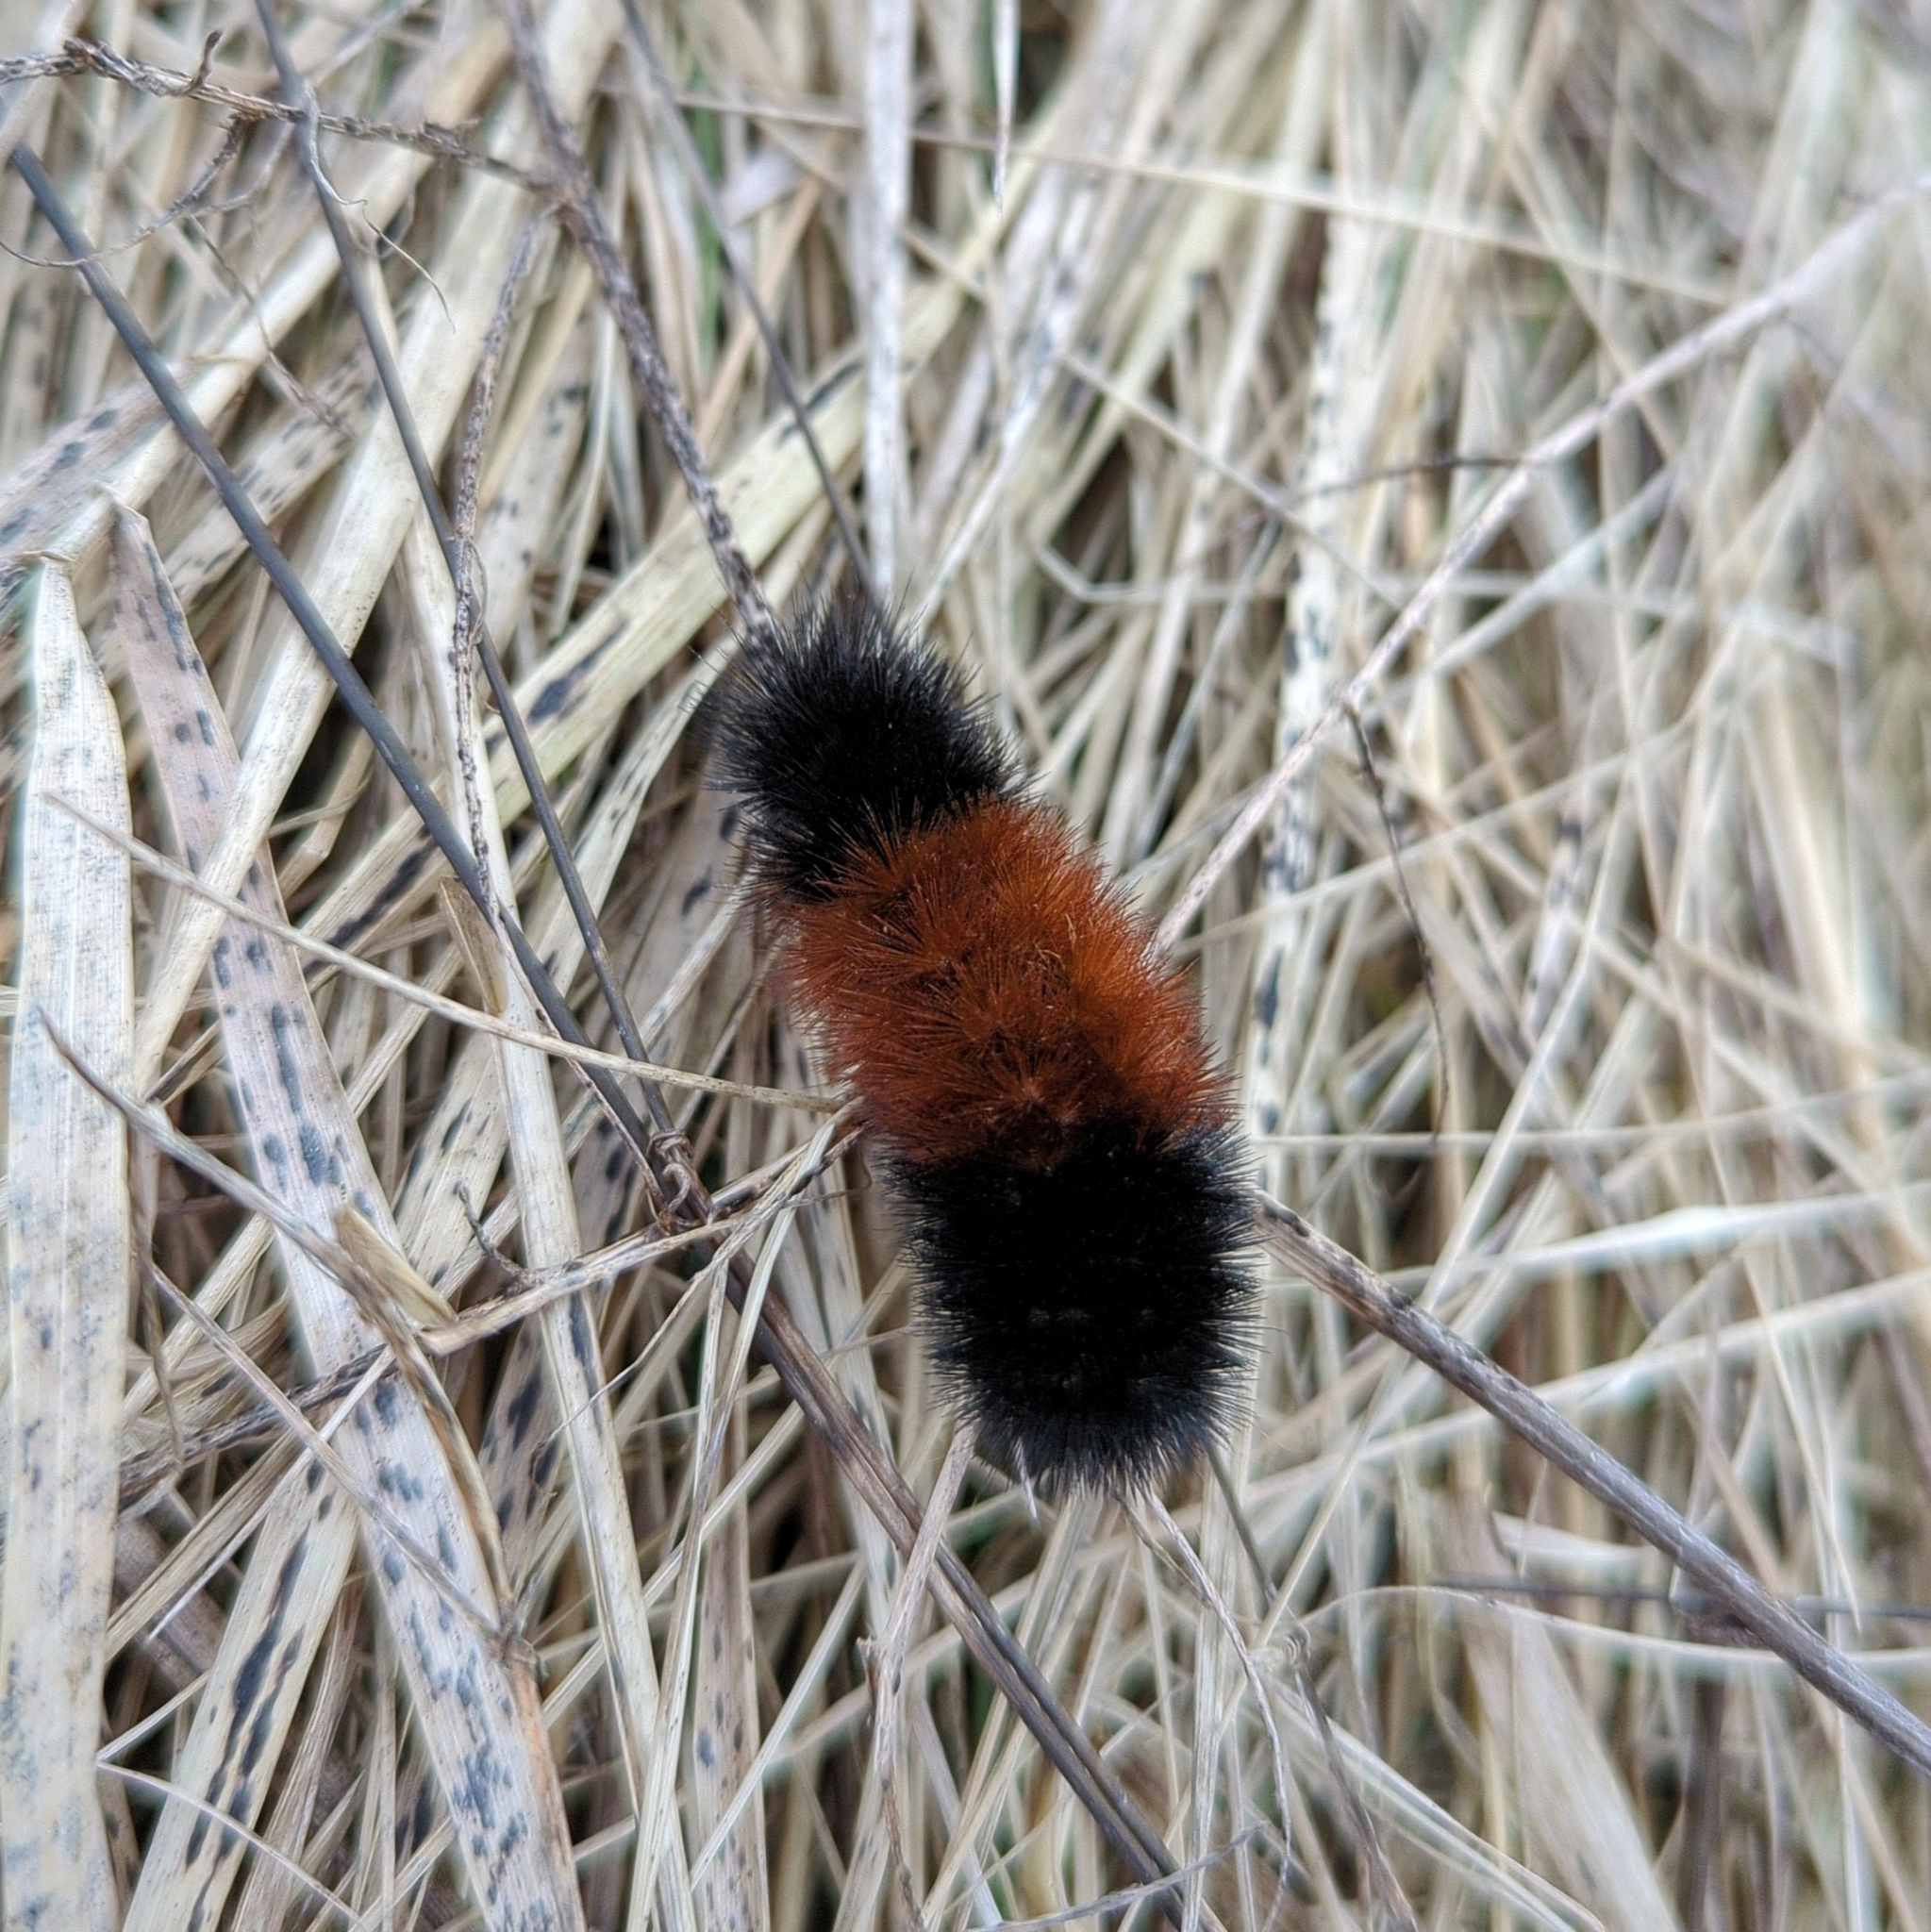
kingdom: Animalia
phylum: Arthropoda
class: Insecta
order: Lepidoptera
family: Erebidae
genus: Pyrrharctia
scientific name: Pyrrharctia isabella
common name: Isabella tiger moth
